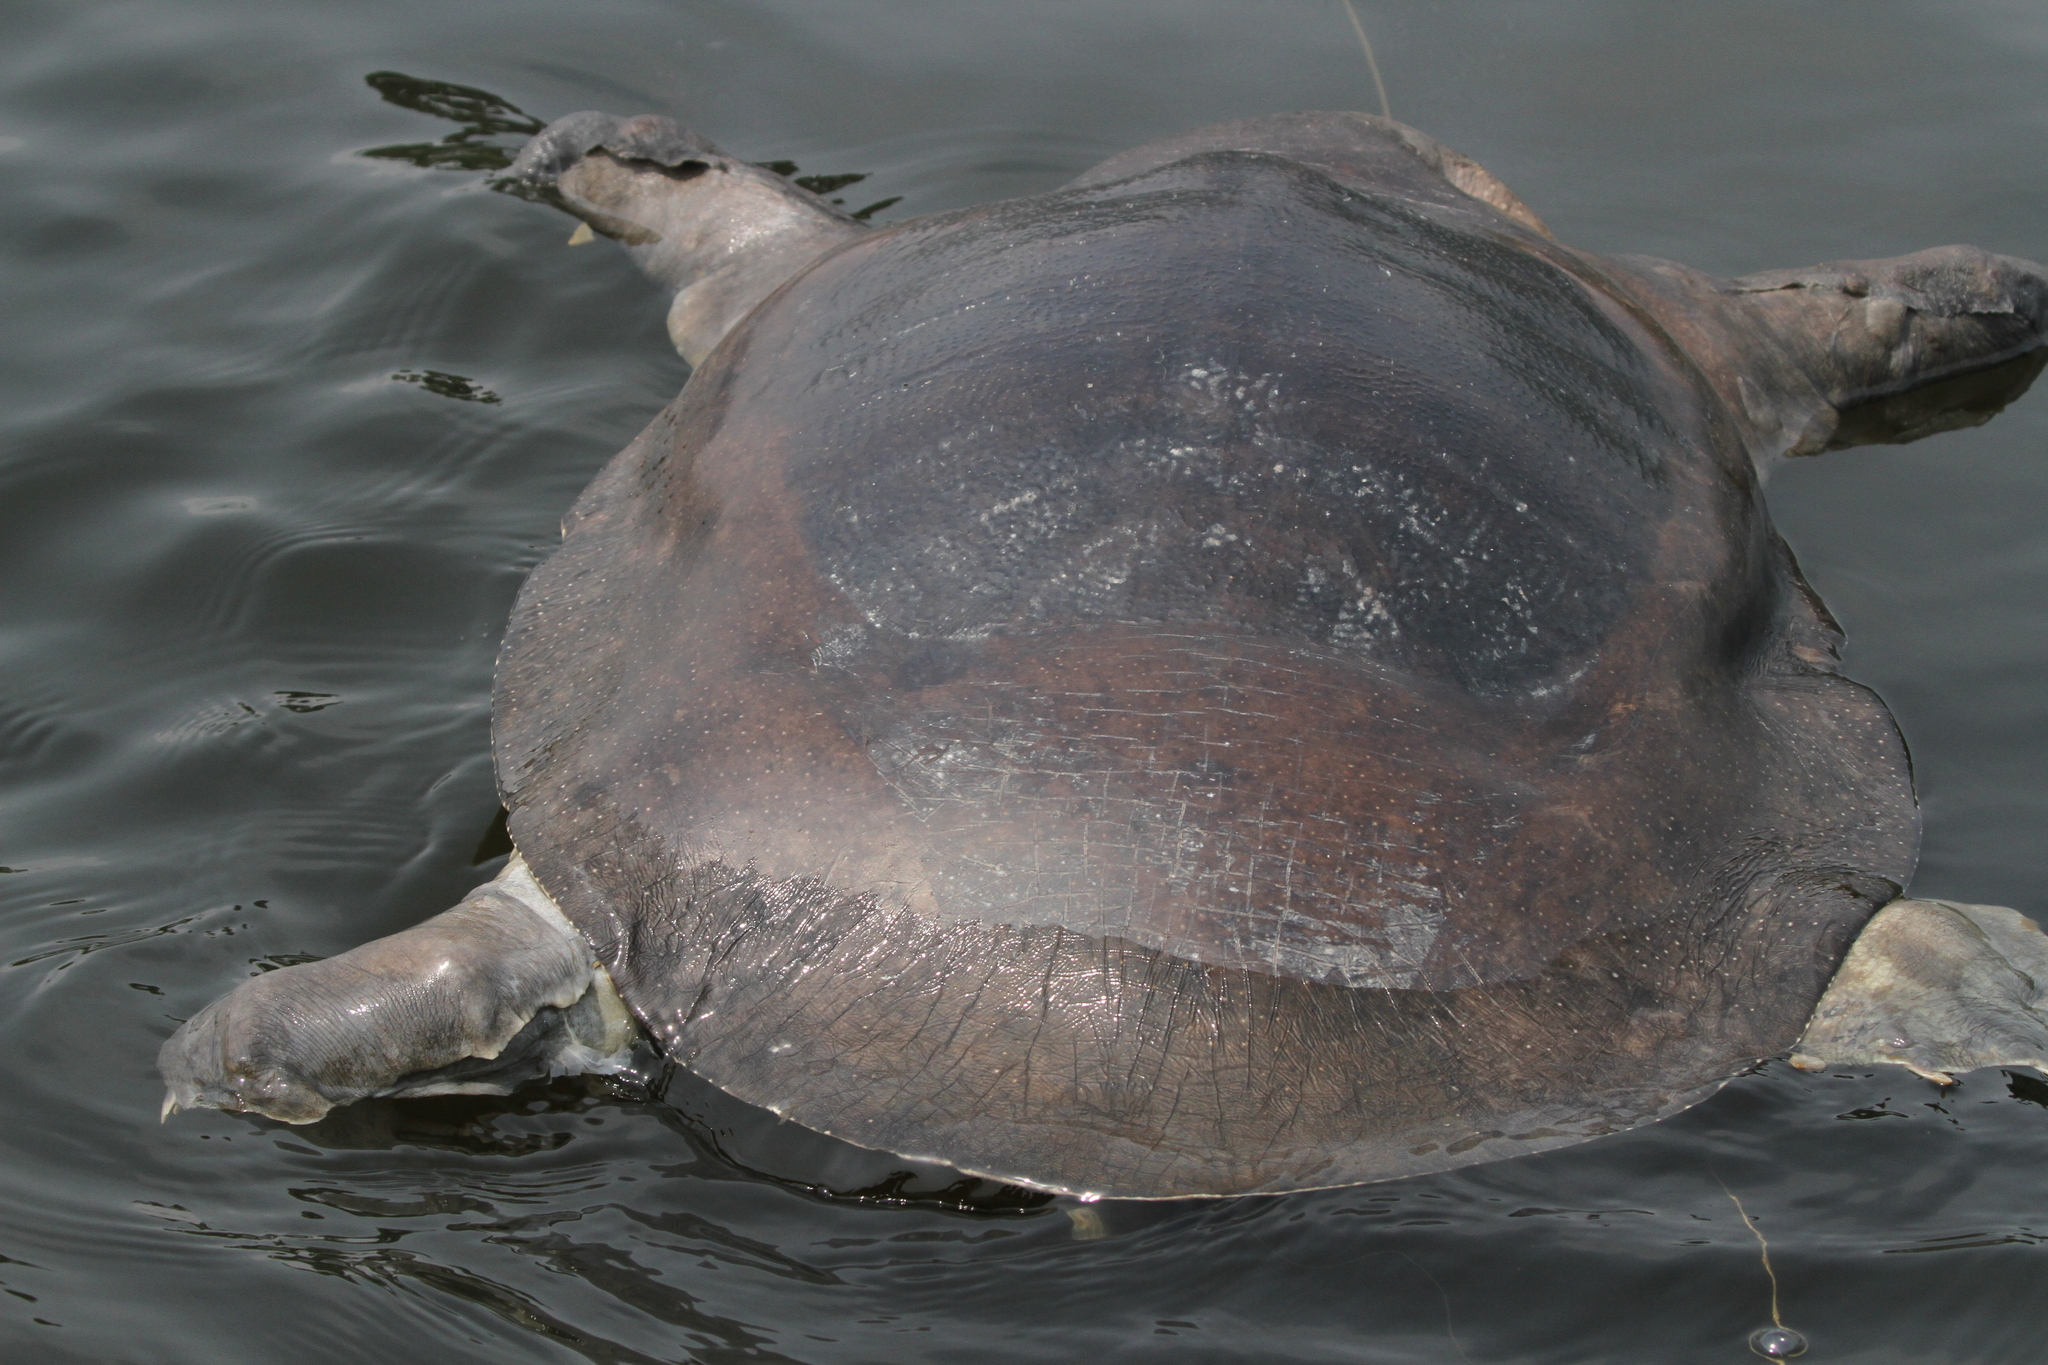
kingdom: Animalia
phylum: Chordata
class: Testudines
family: Trionychidae
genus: Trionyx
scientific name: Trionyx triunguis
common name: African softshell turtle
